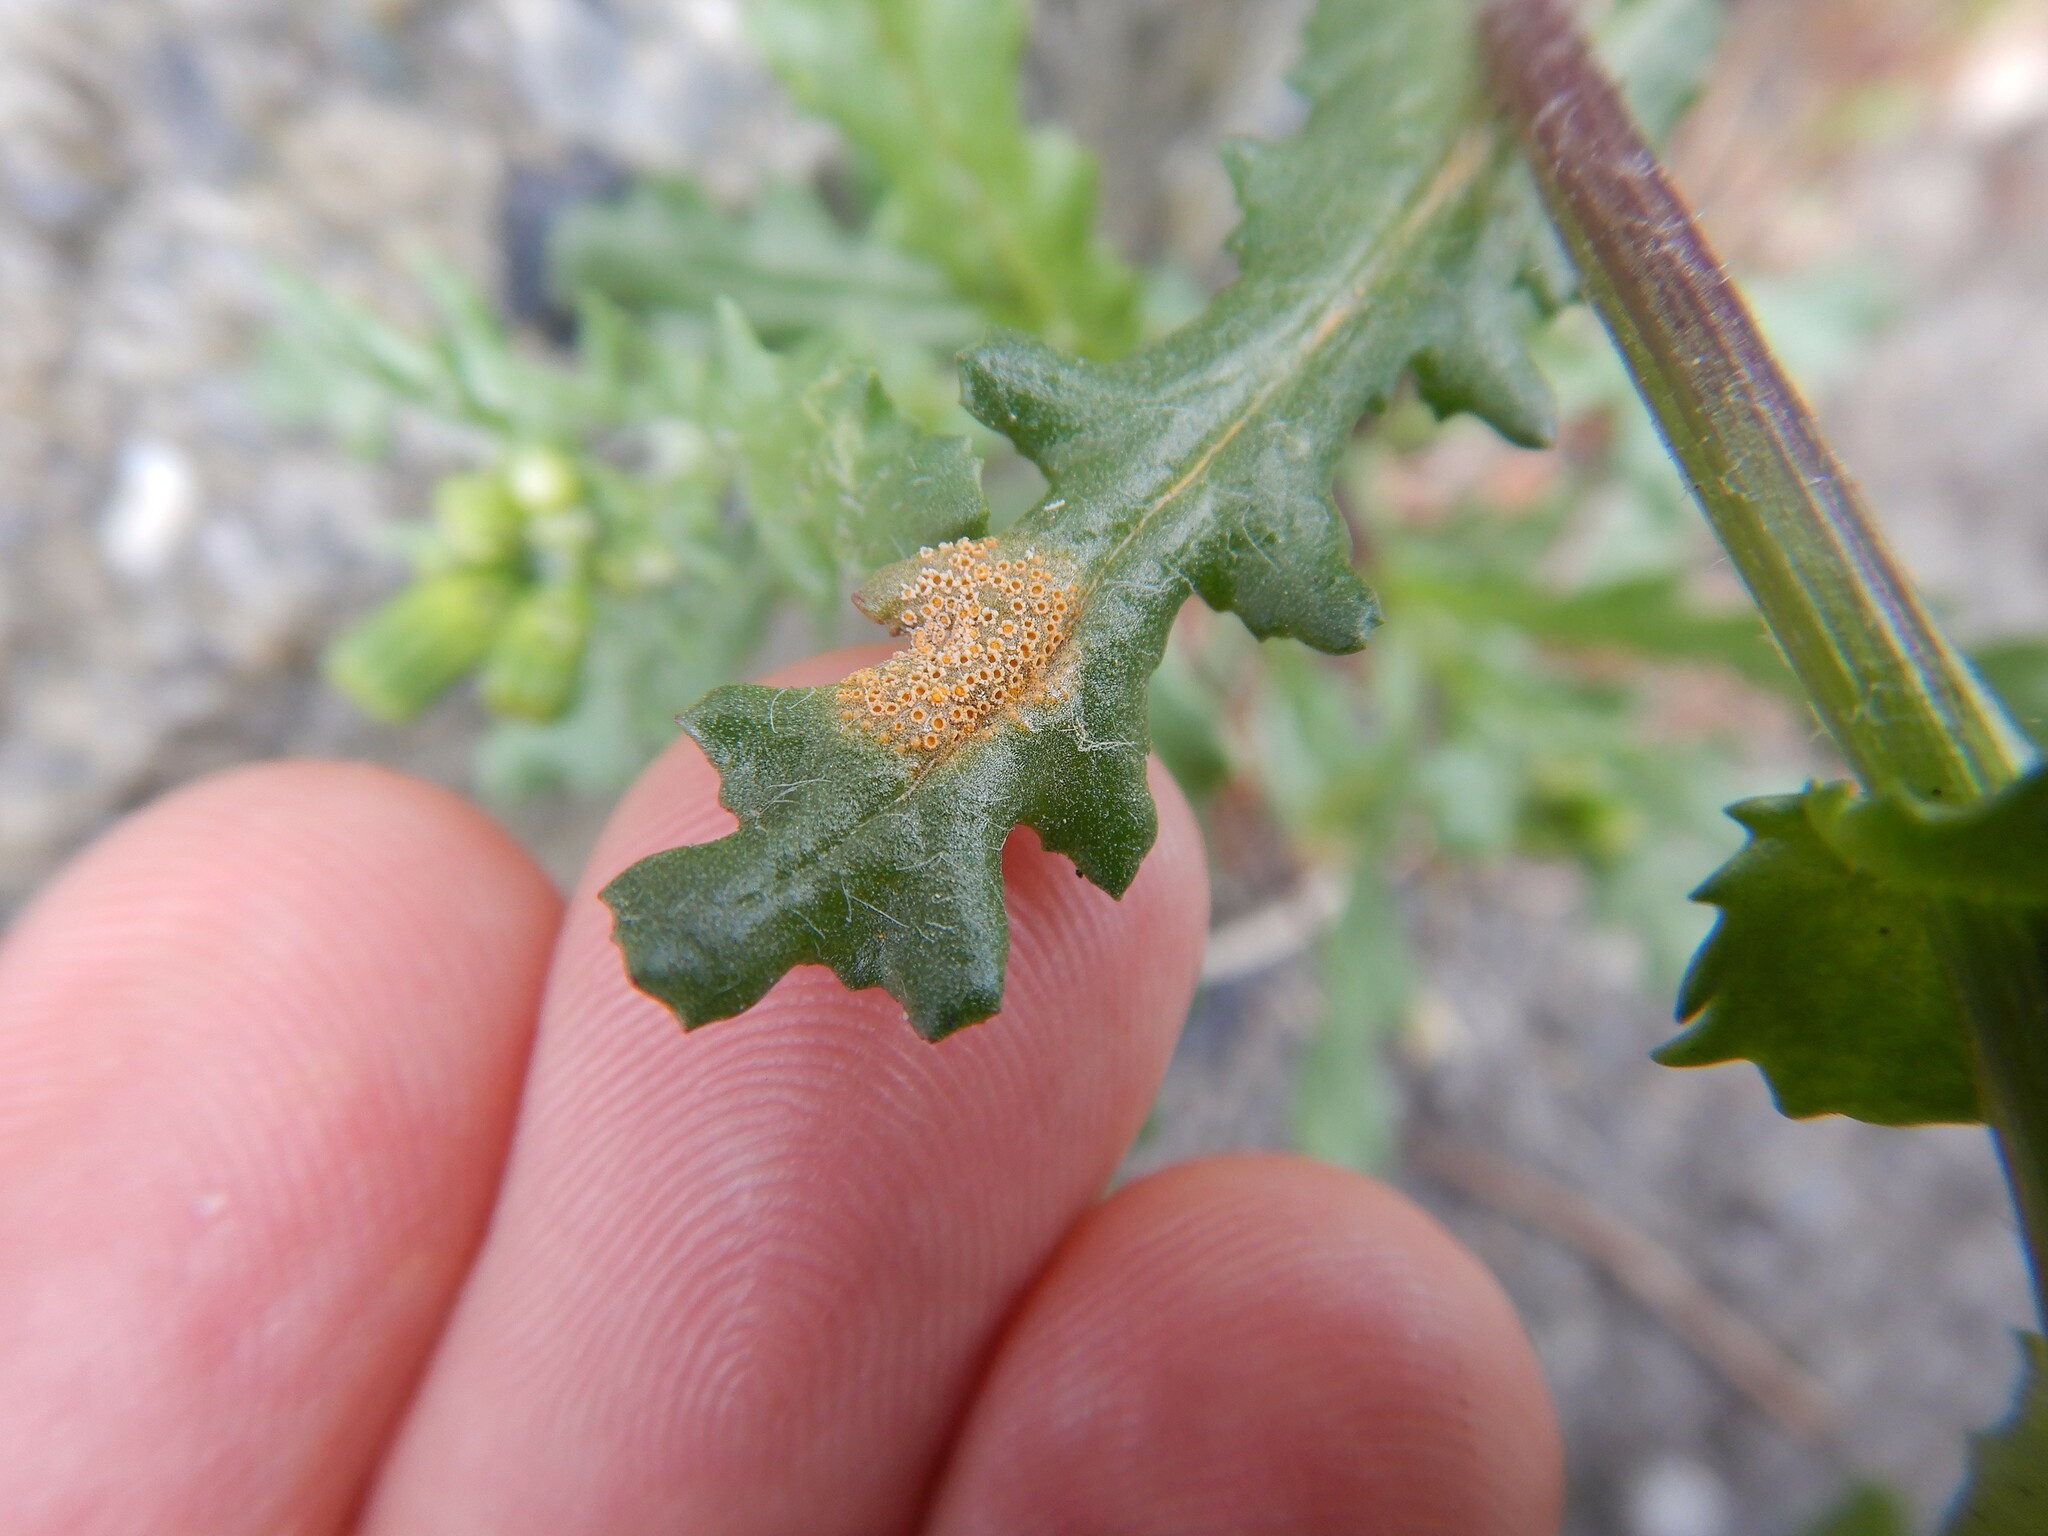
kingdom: Fungi
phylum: Basidiomycota
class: Pucciniomycetes
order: Pucciniales
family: Pucciniaceae
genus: Puccinia
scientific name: Puccinia lagenophorae
